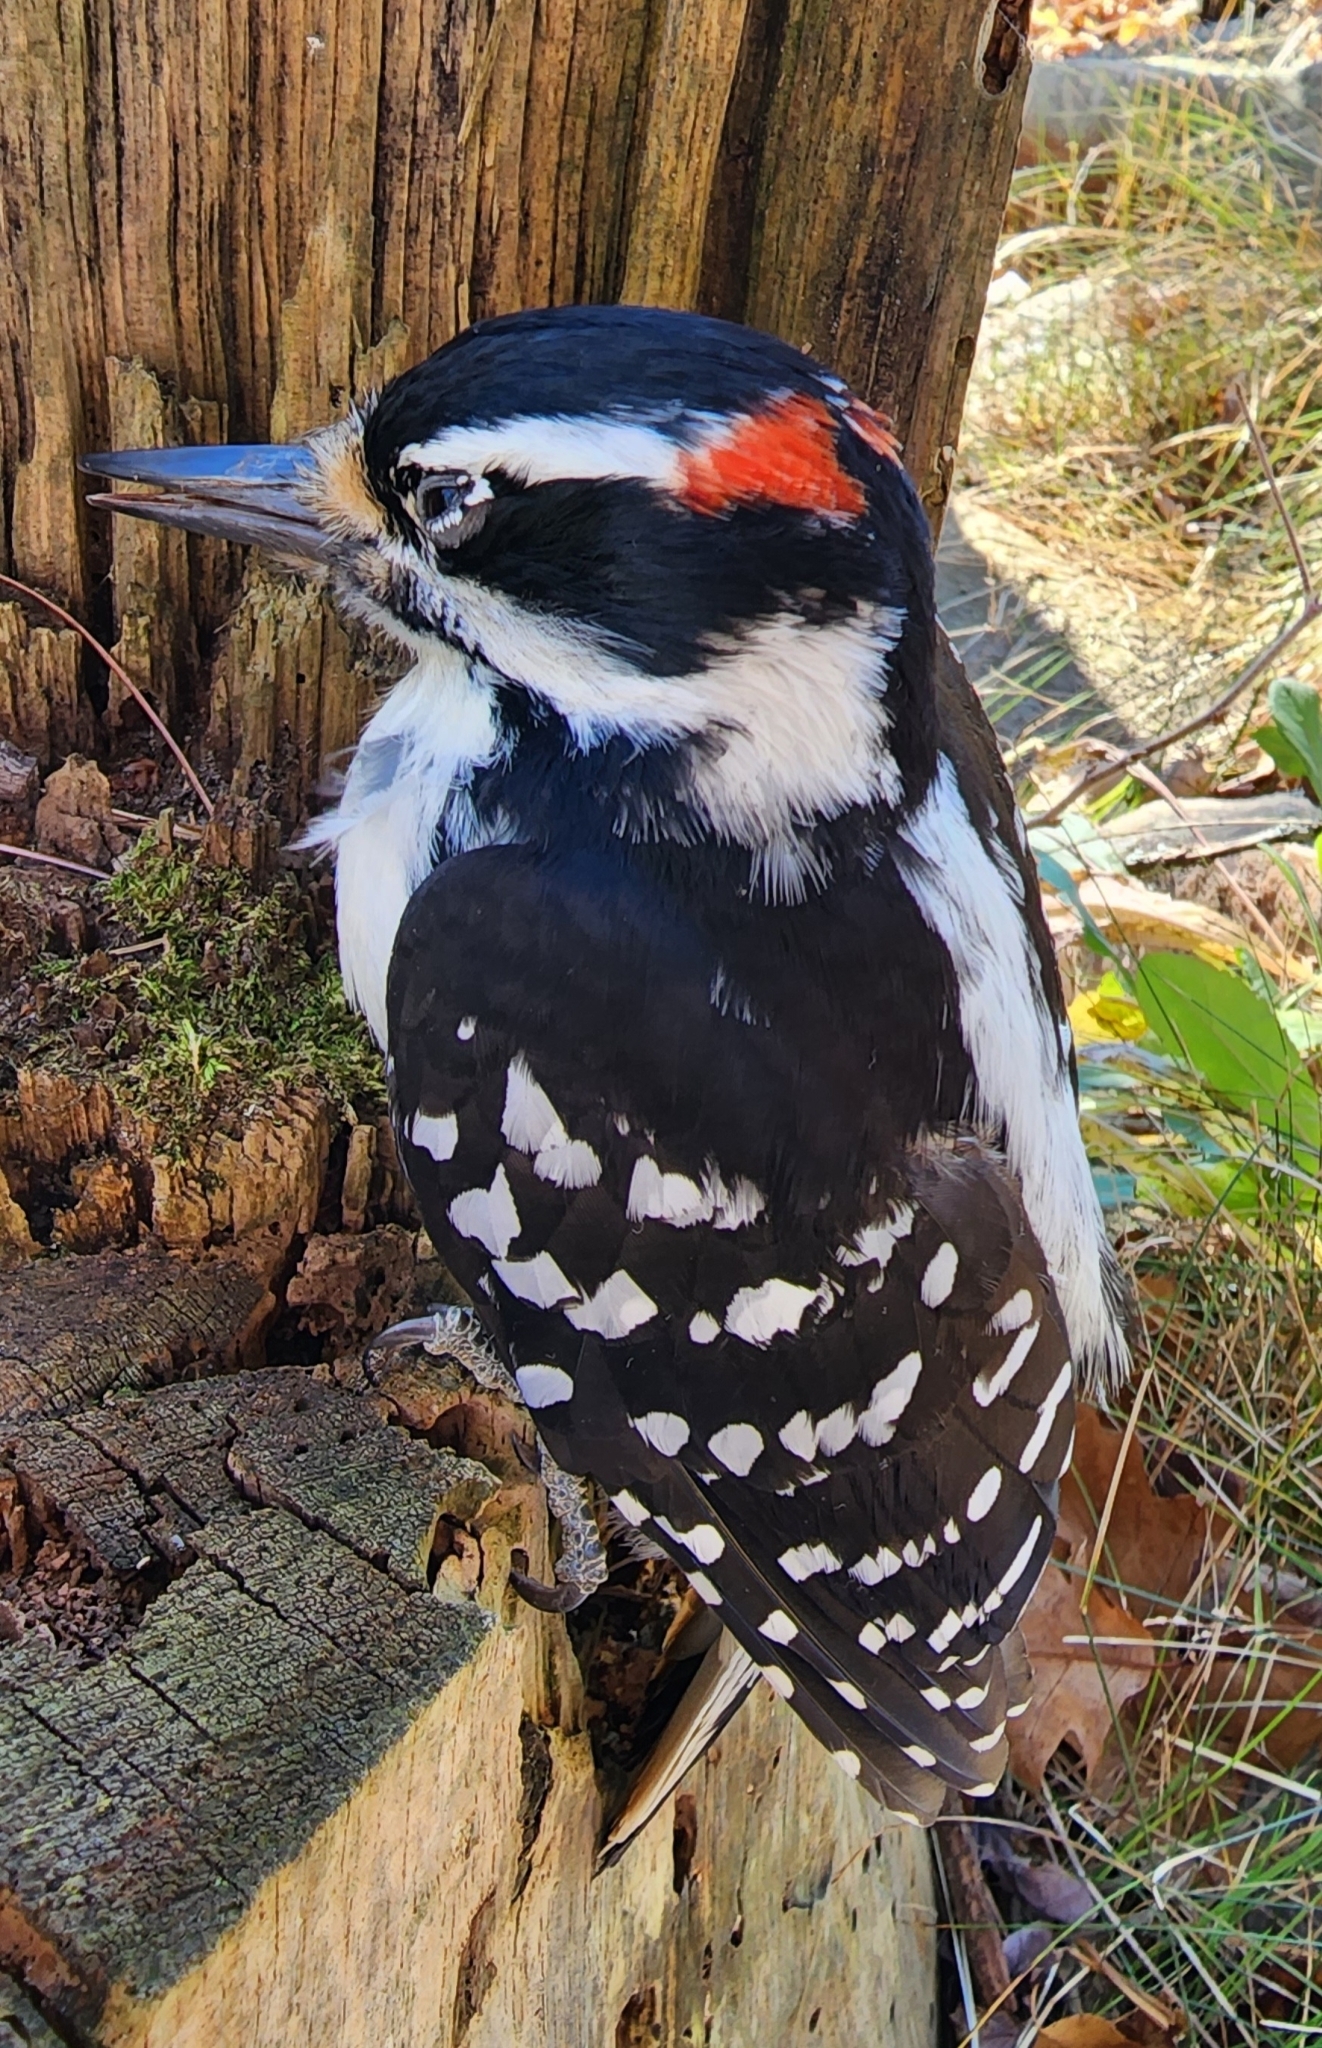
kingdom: Animalia
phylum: Chordata
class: Aves
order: Piciformes
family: Picidae
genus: Leuconotopicus
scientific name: Leuconotopicus villosus
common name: Hairy woodpecker
